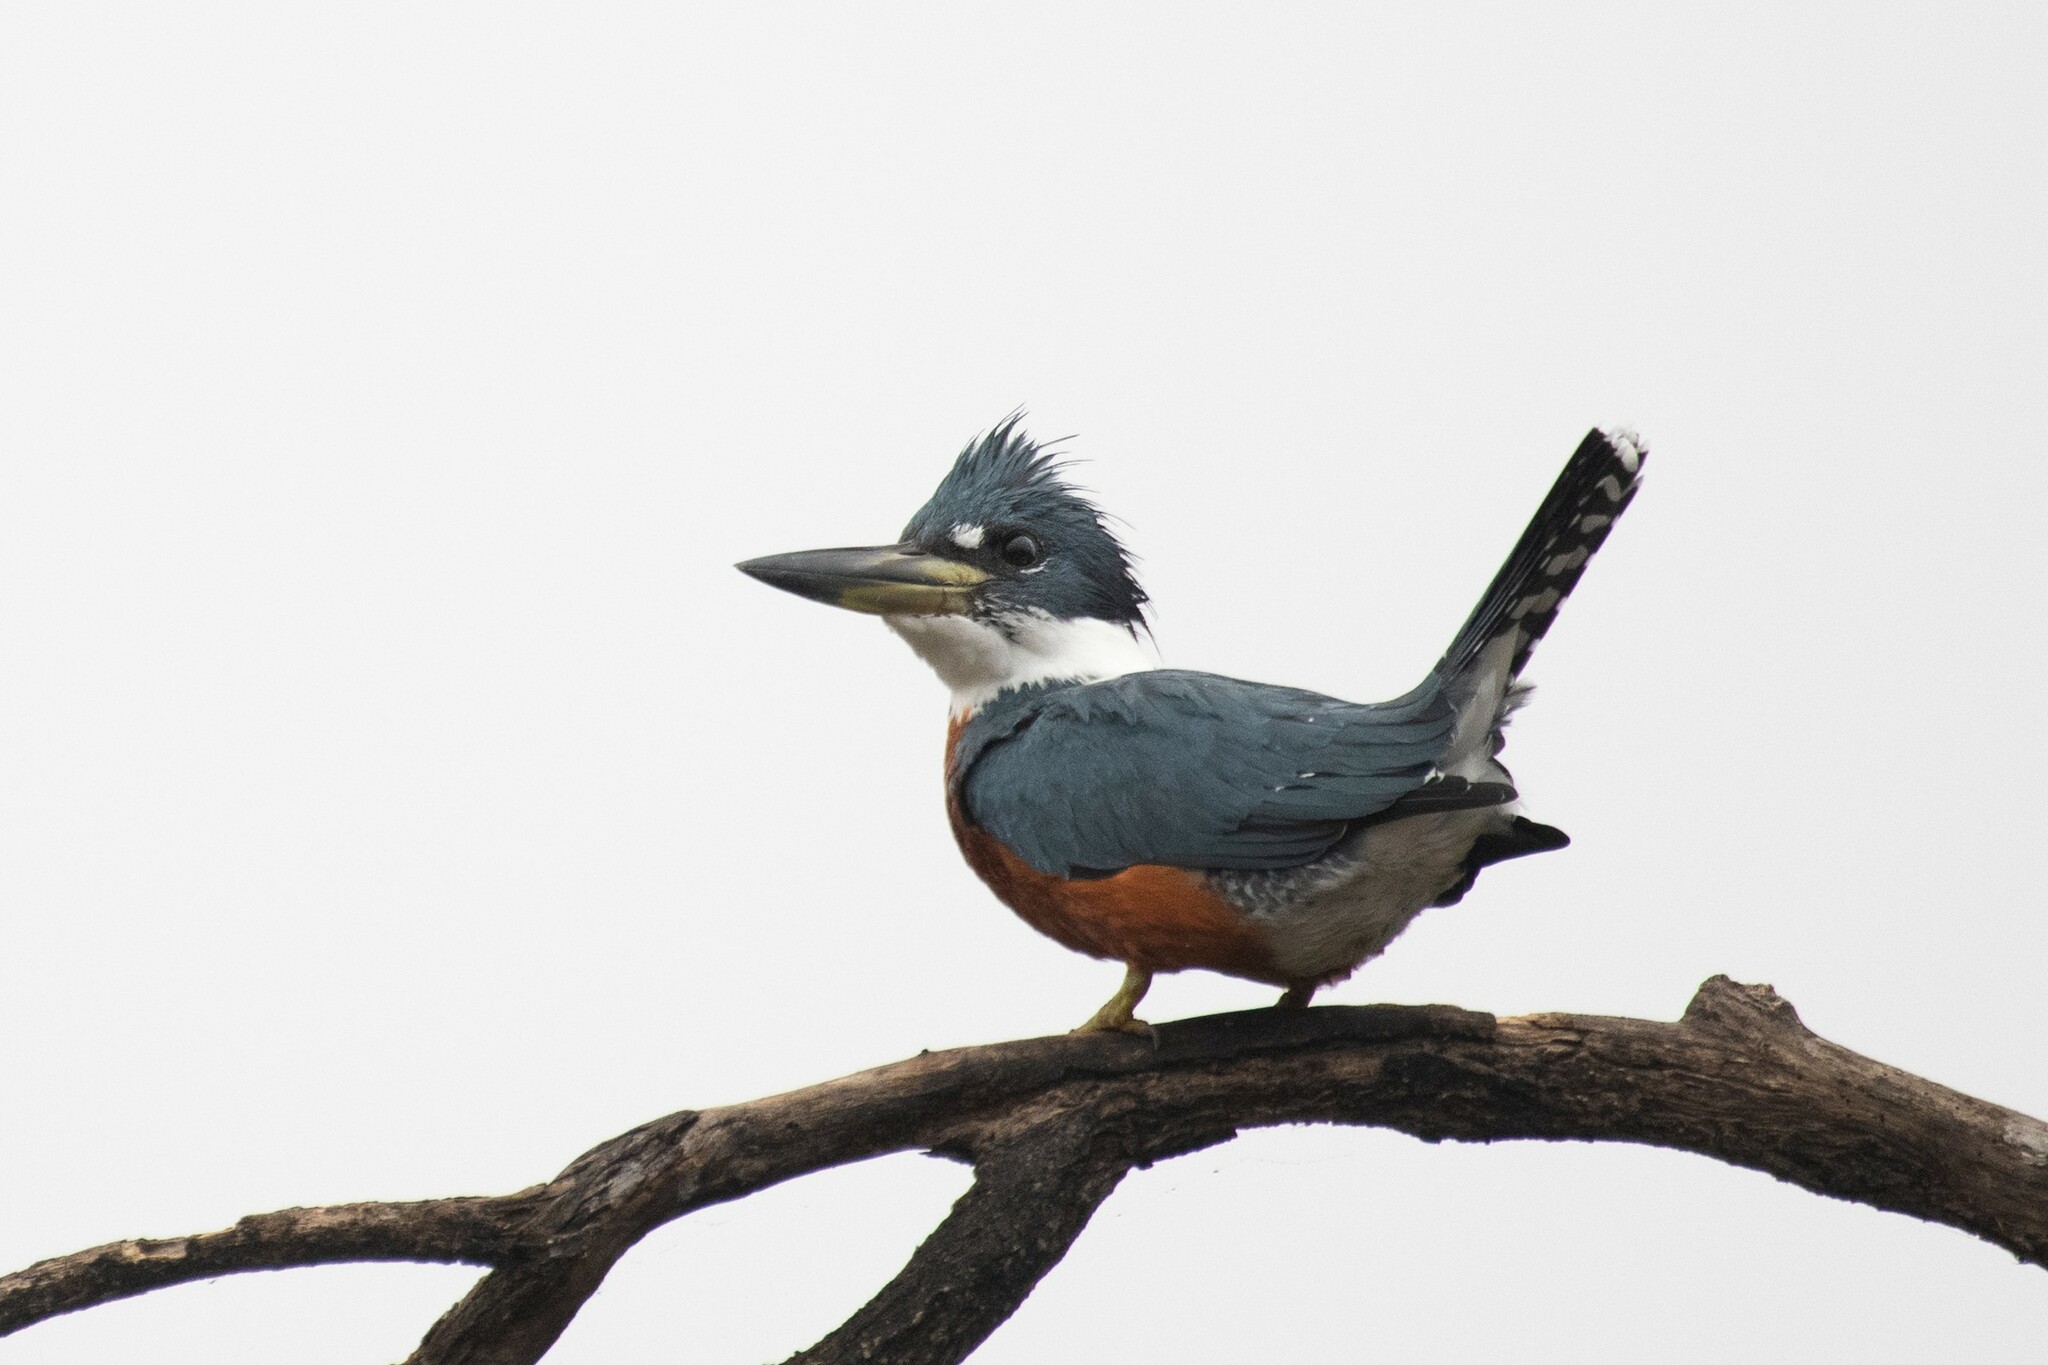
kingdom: Animalia
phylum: Chordata
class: Aves
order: Coraciiformes
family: Alcedinidae
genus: Megaceryle
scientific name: Megaceryle torquata
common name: Ringed kingfisher
